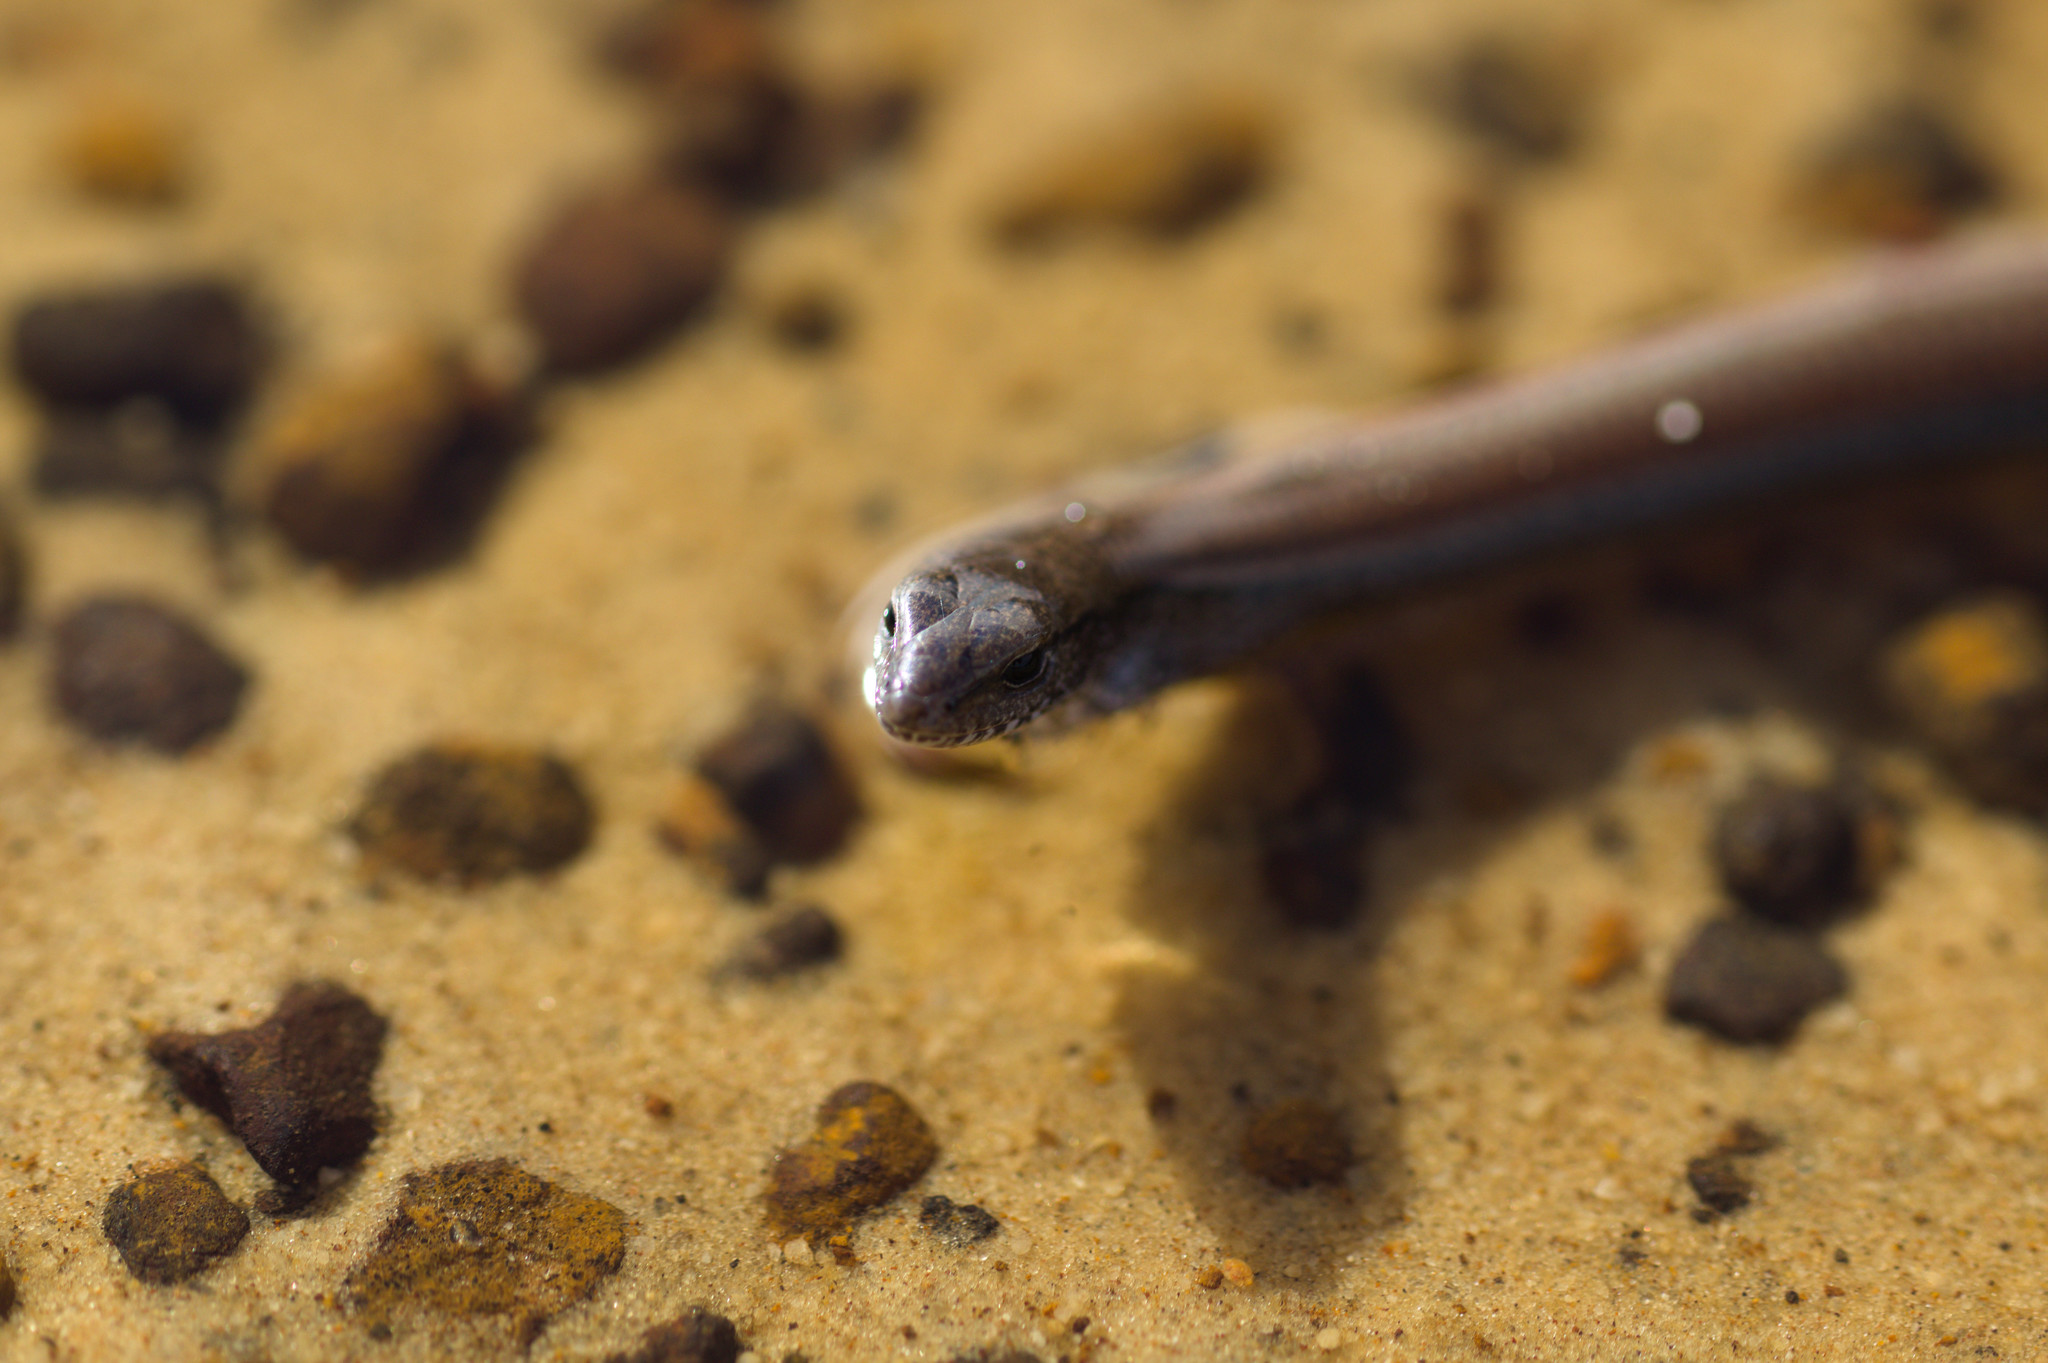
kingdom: Animalia
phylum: Chordata
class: Squamata
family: Scincidae
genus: Hemiergis
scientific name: Hemiergis peronii
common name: Lowlands earless skink
